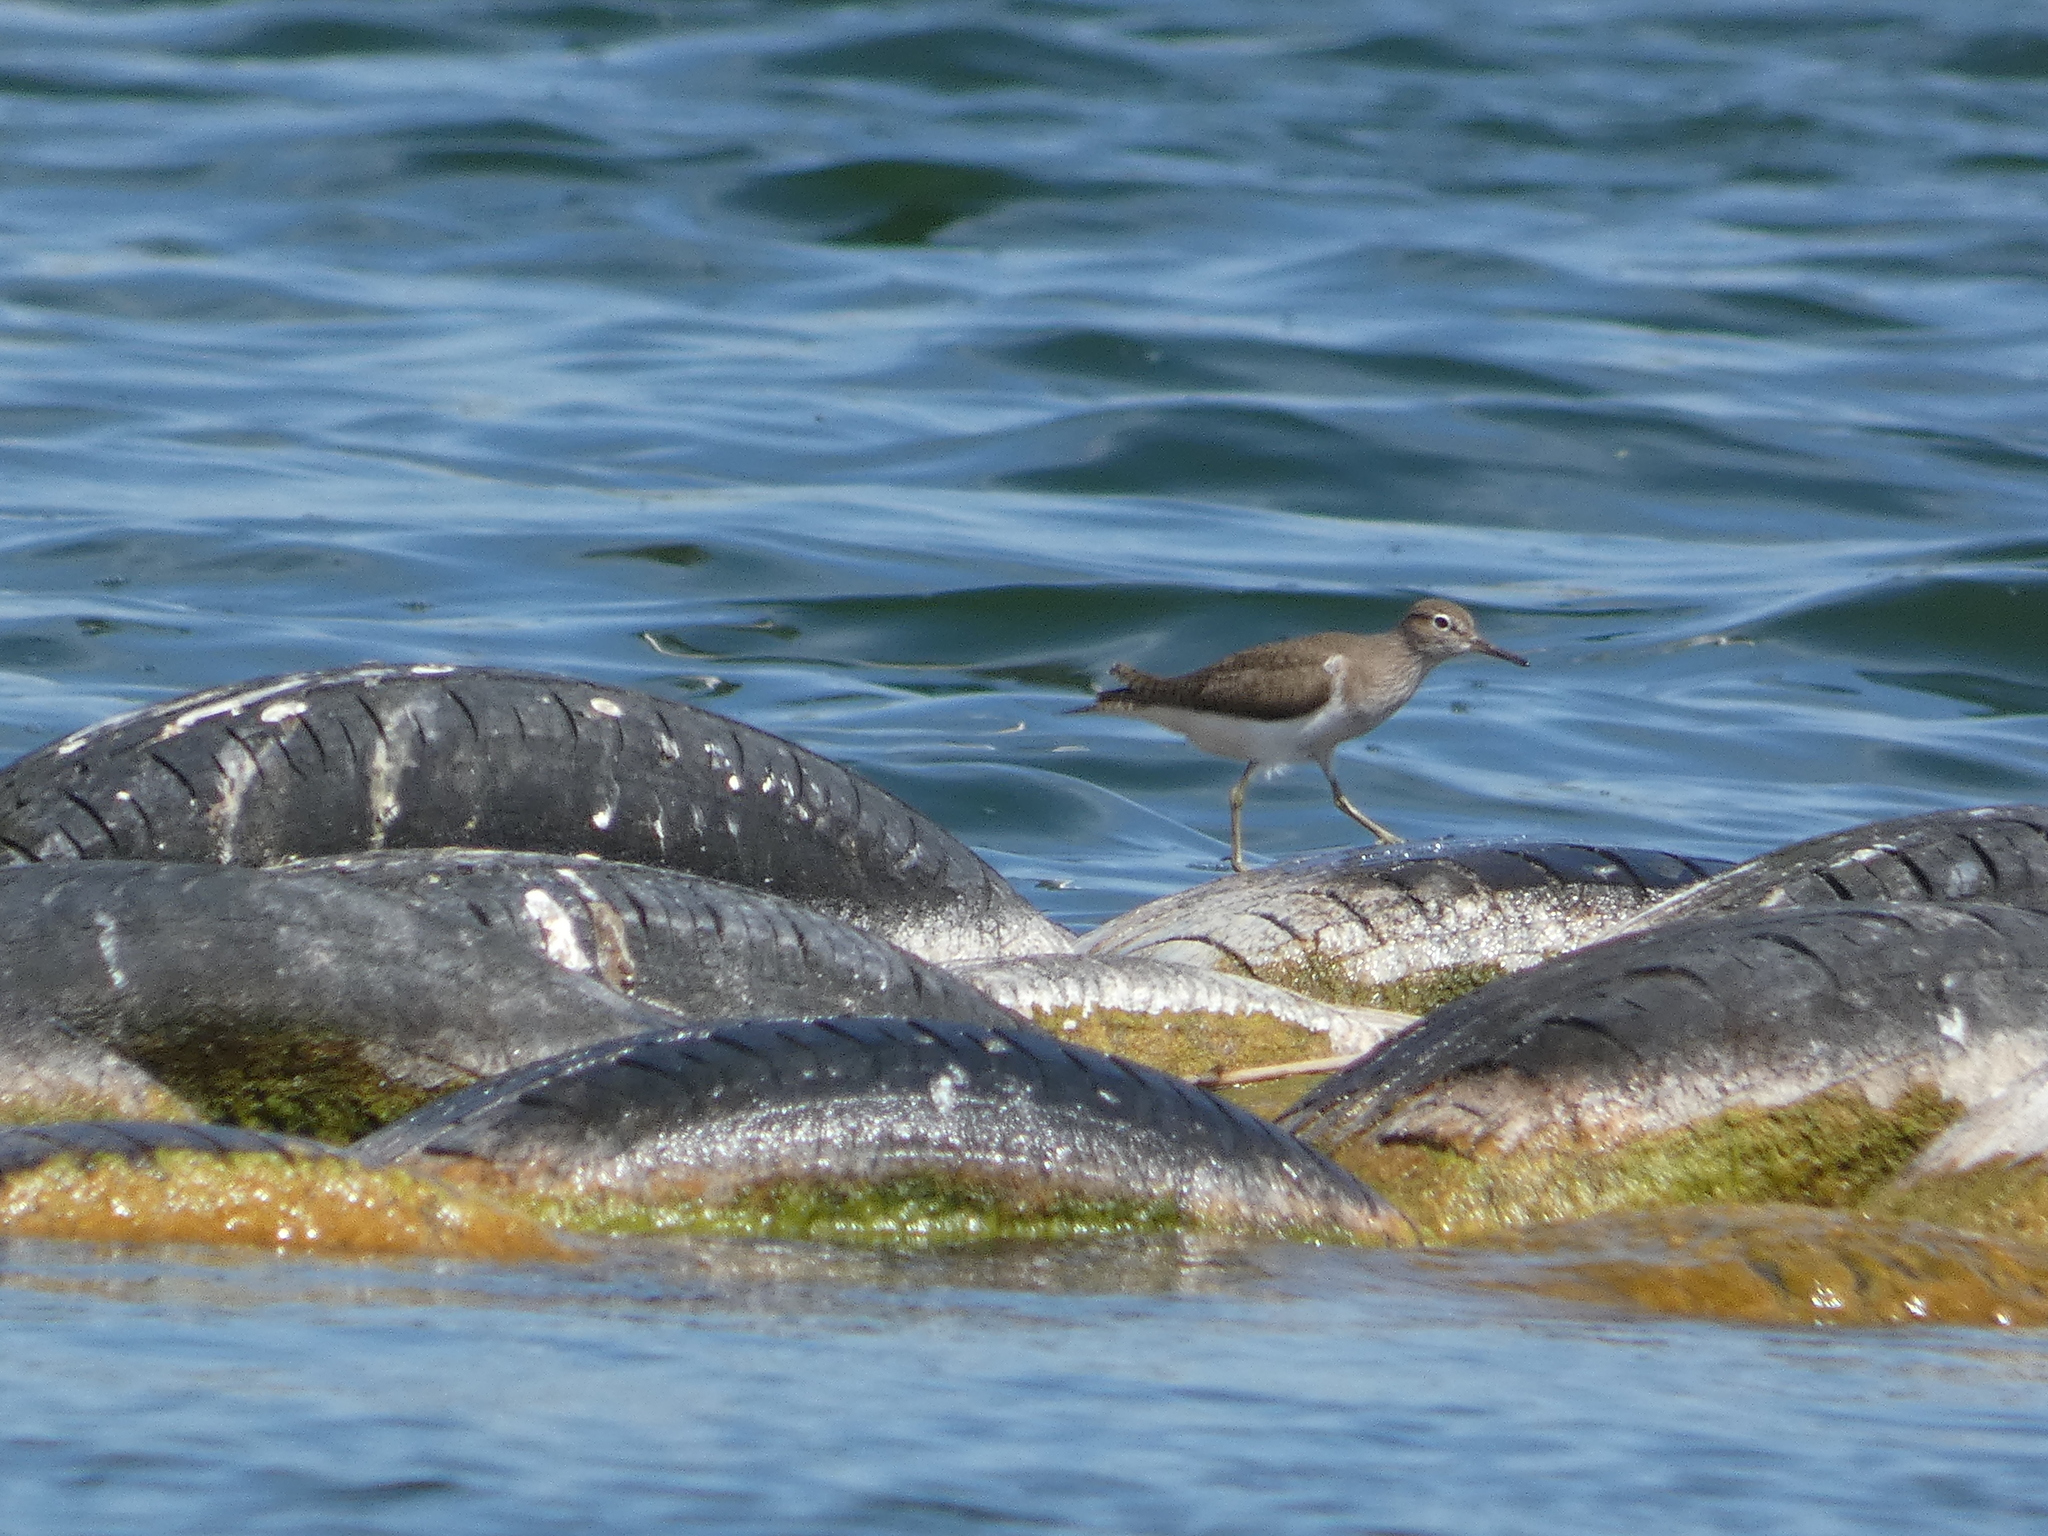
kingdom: Animalia
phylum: Chordata
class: Aves
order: Charadriiformes
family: Scolopacidae
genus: Actitis
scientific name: Actitis hypoleucos
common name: Common sandpiper
